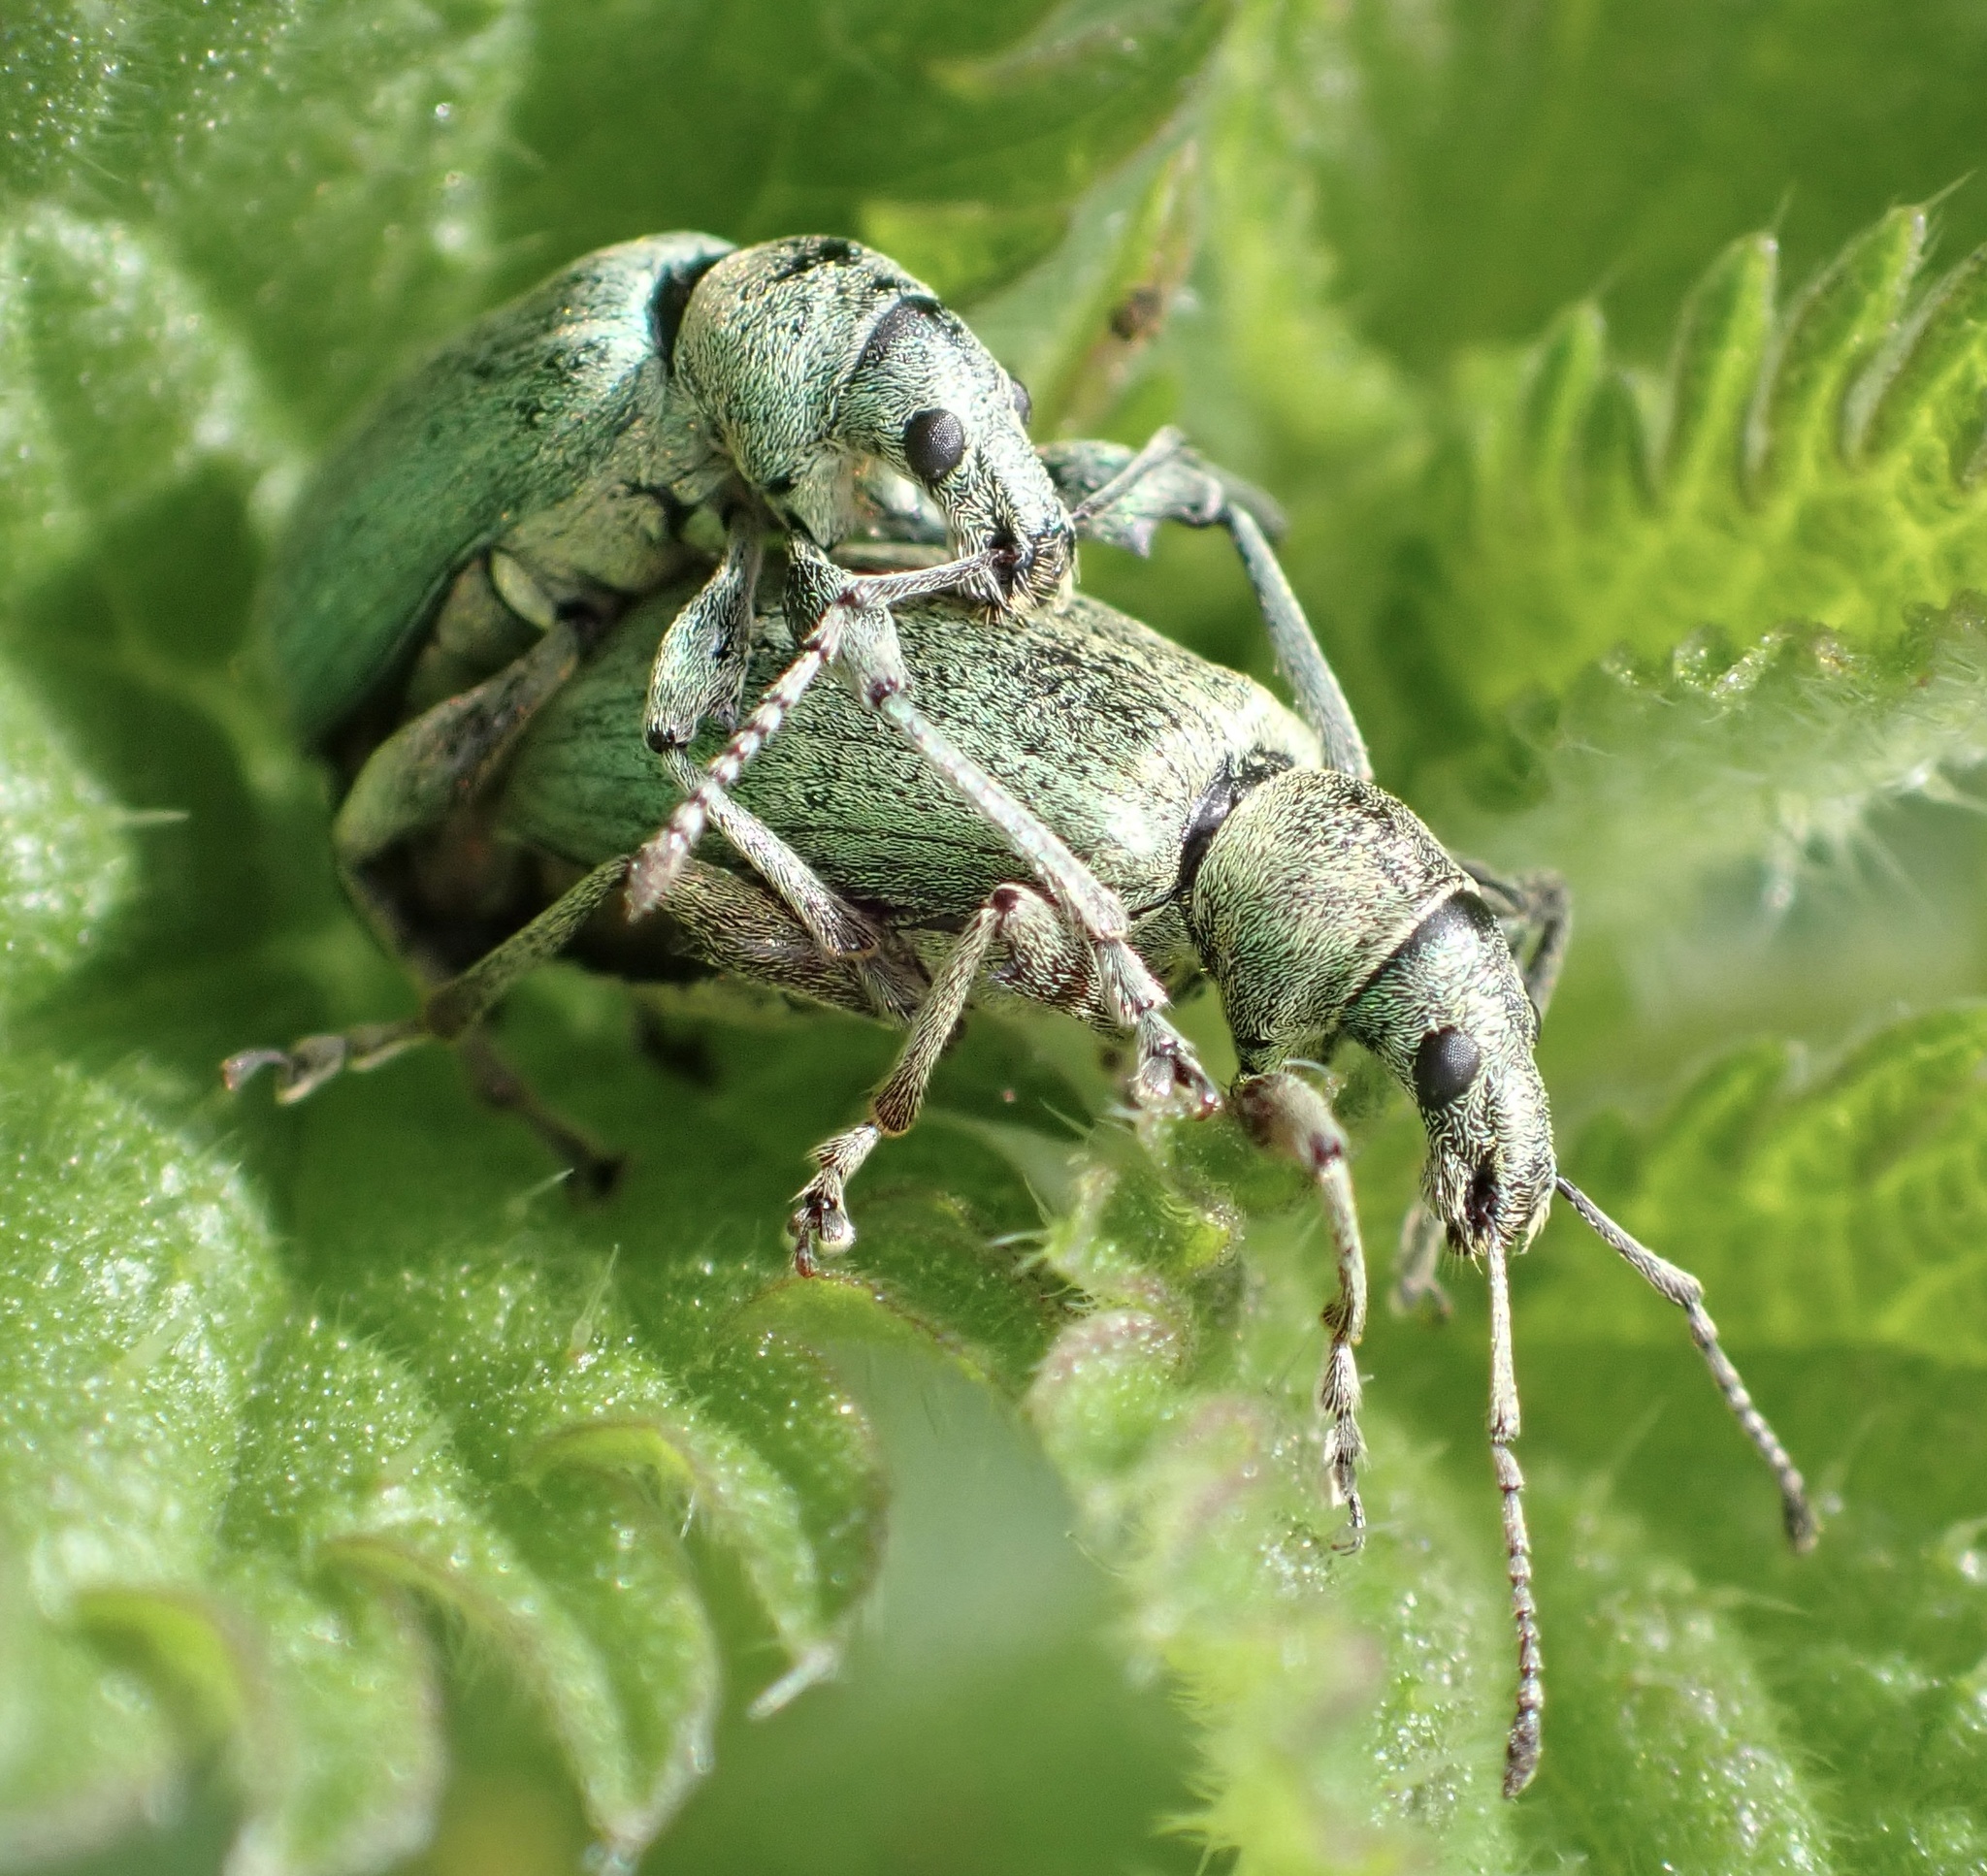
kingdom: Animalia
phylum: Arthropoda
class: Insecta
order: Coleoptera
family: Curculionidae
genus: Phyllobius
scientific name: Phyllobius pomaceus
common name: Green nettle weevil
